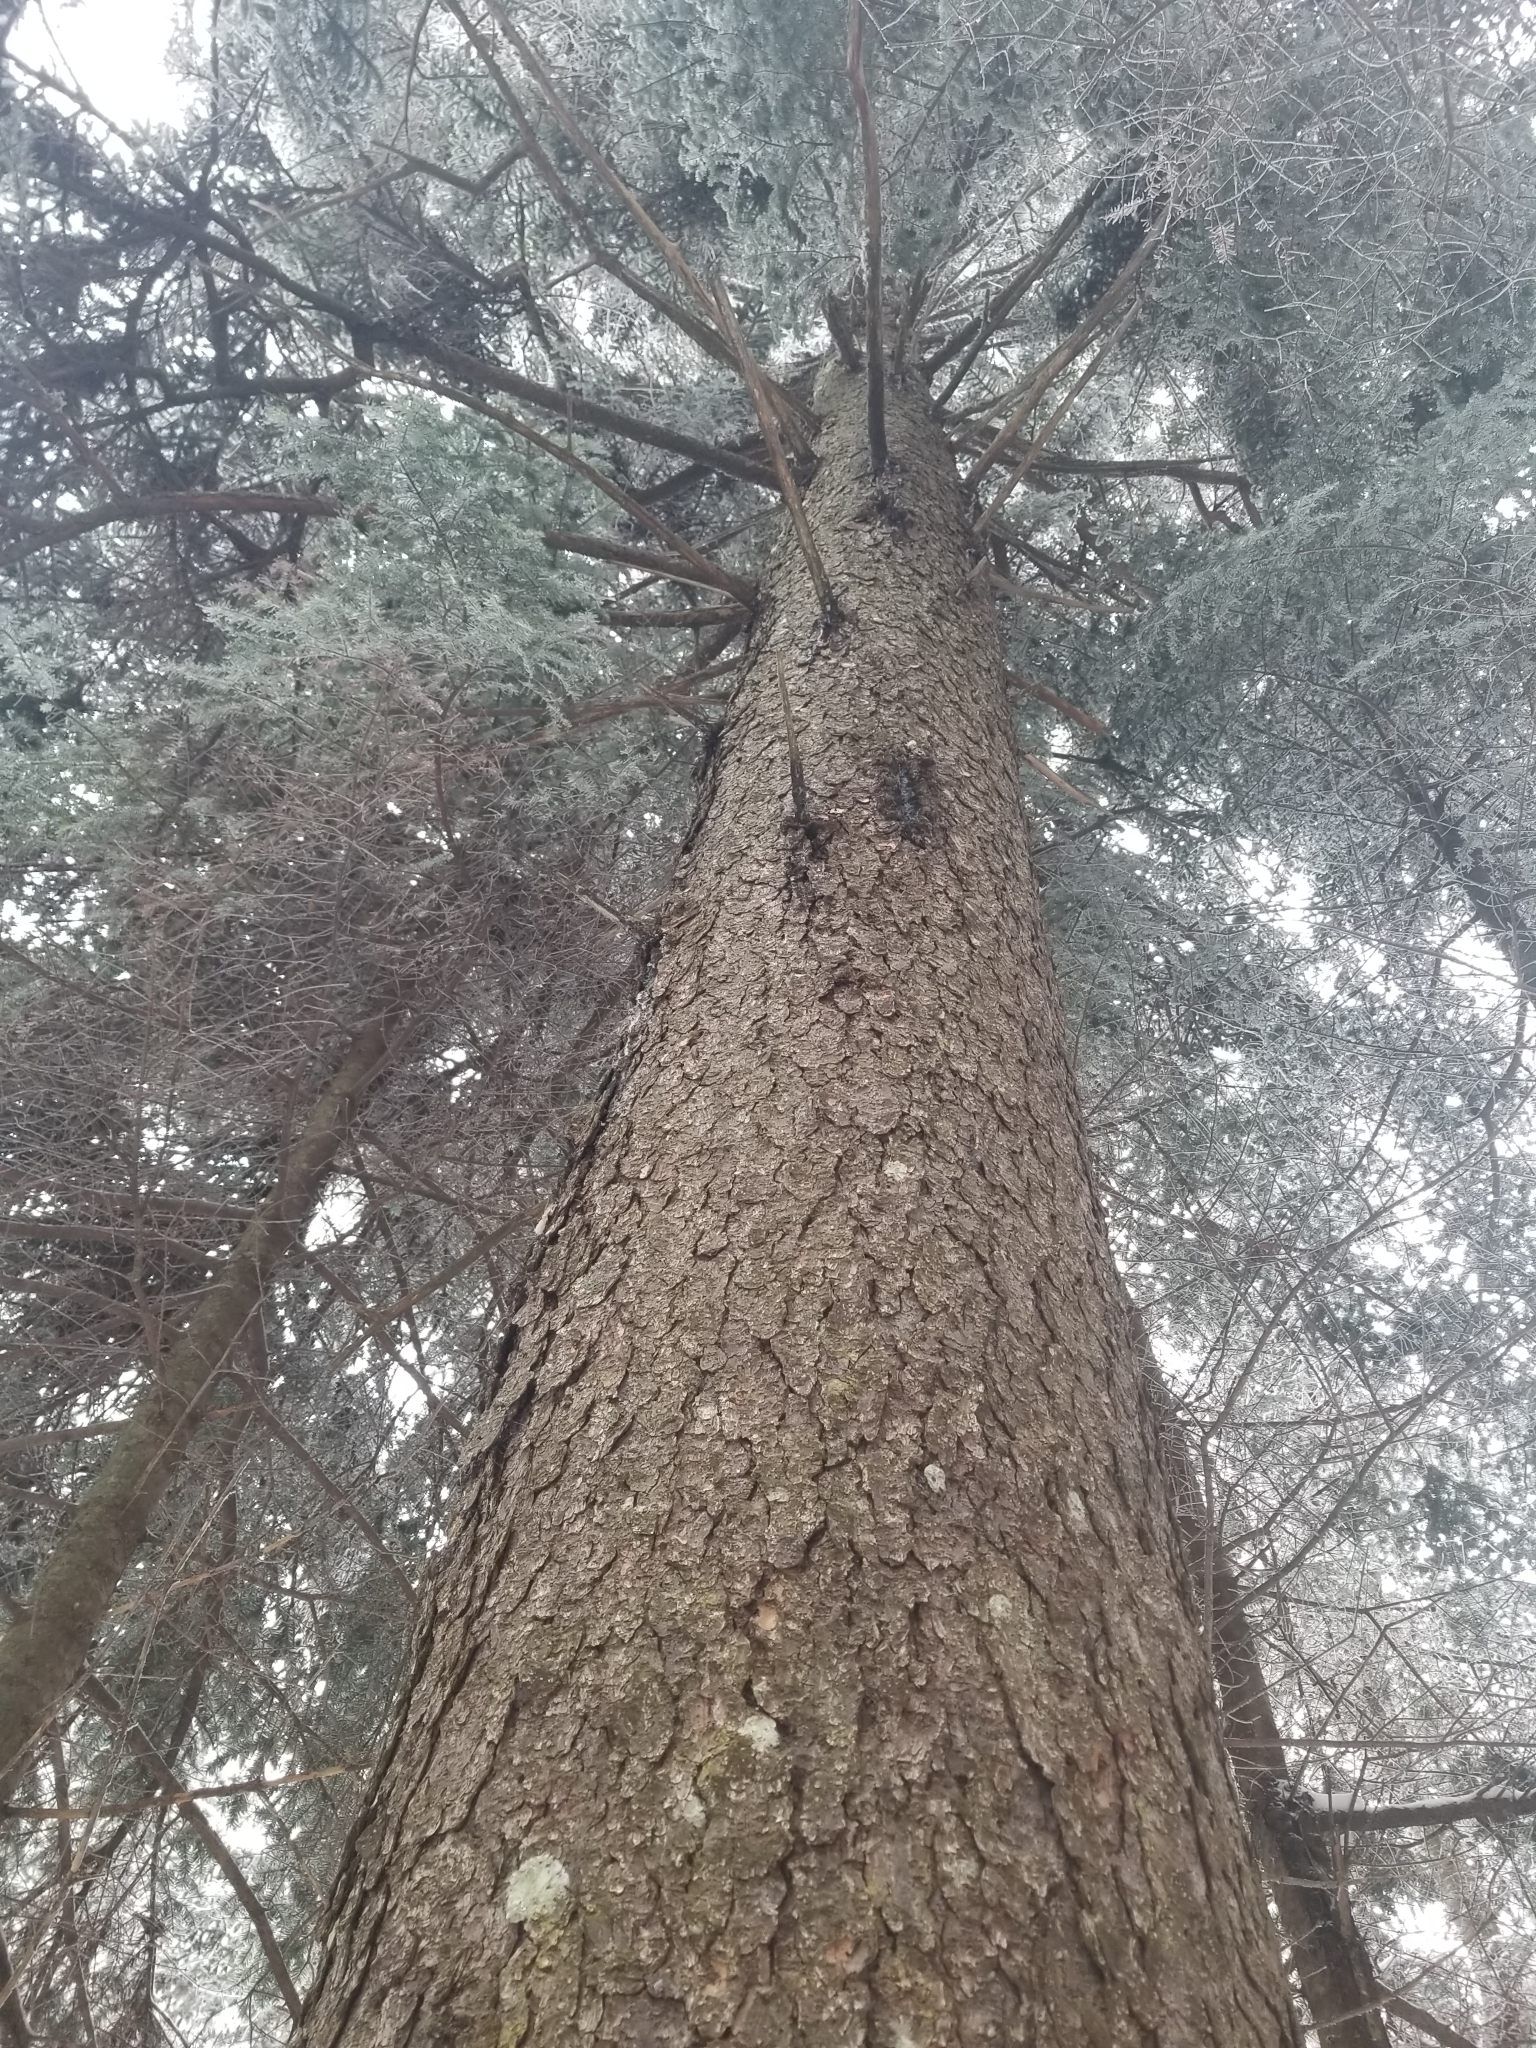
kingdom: Plantae
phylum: Tracheophyta
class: Pinopsida
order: Pinales
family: Pinaceae
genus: Picea
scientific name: Picea rubens
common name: Red spruce
